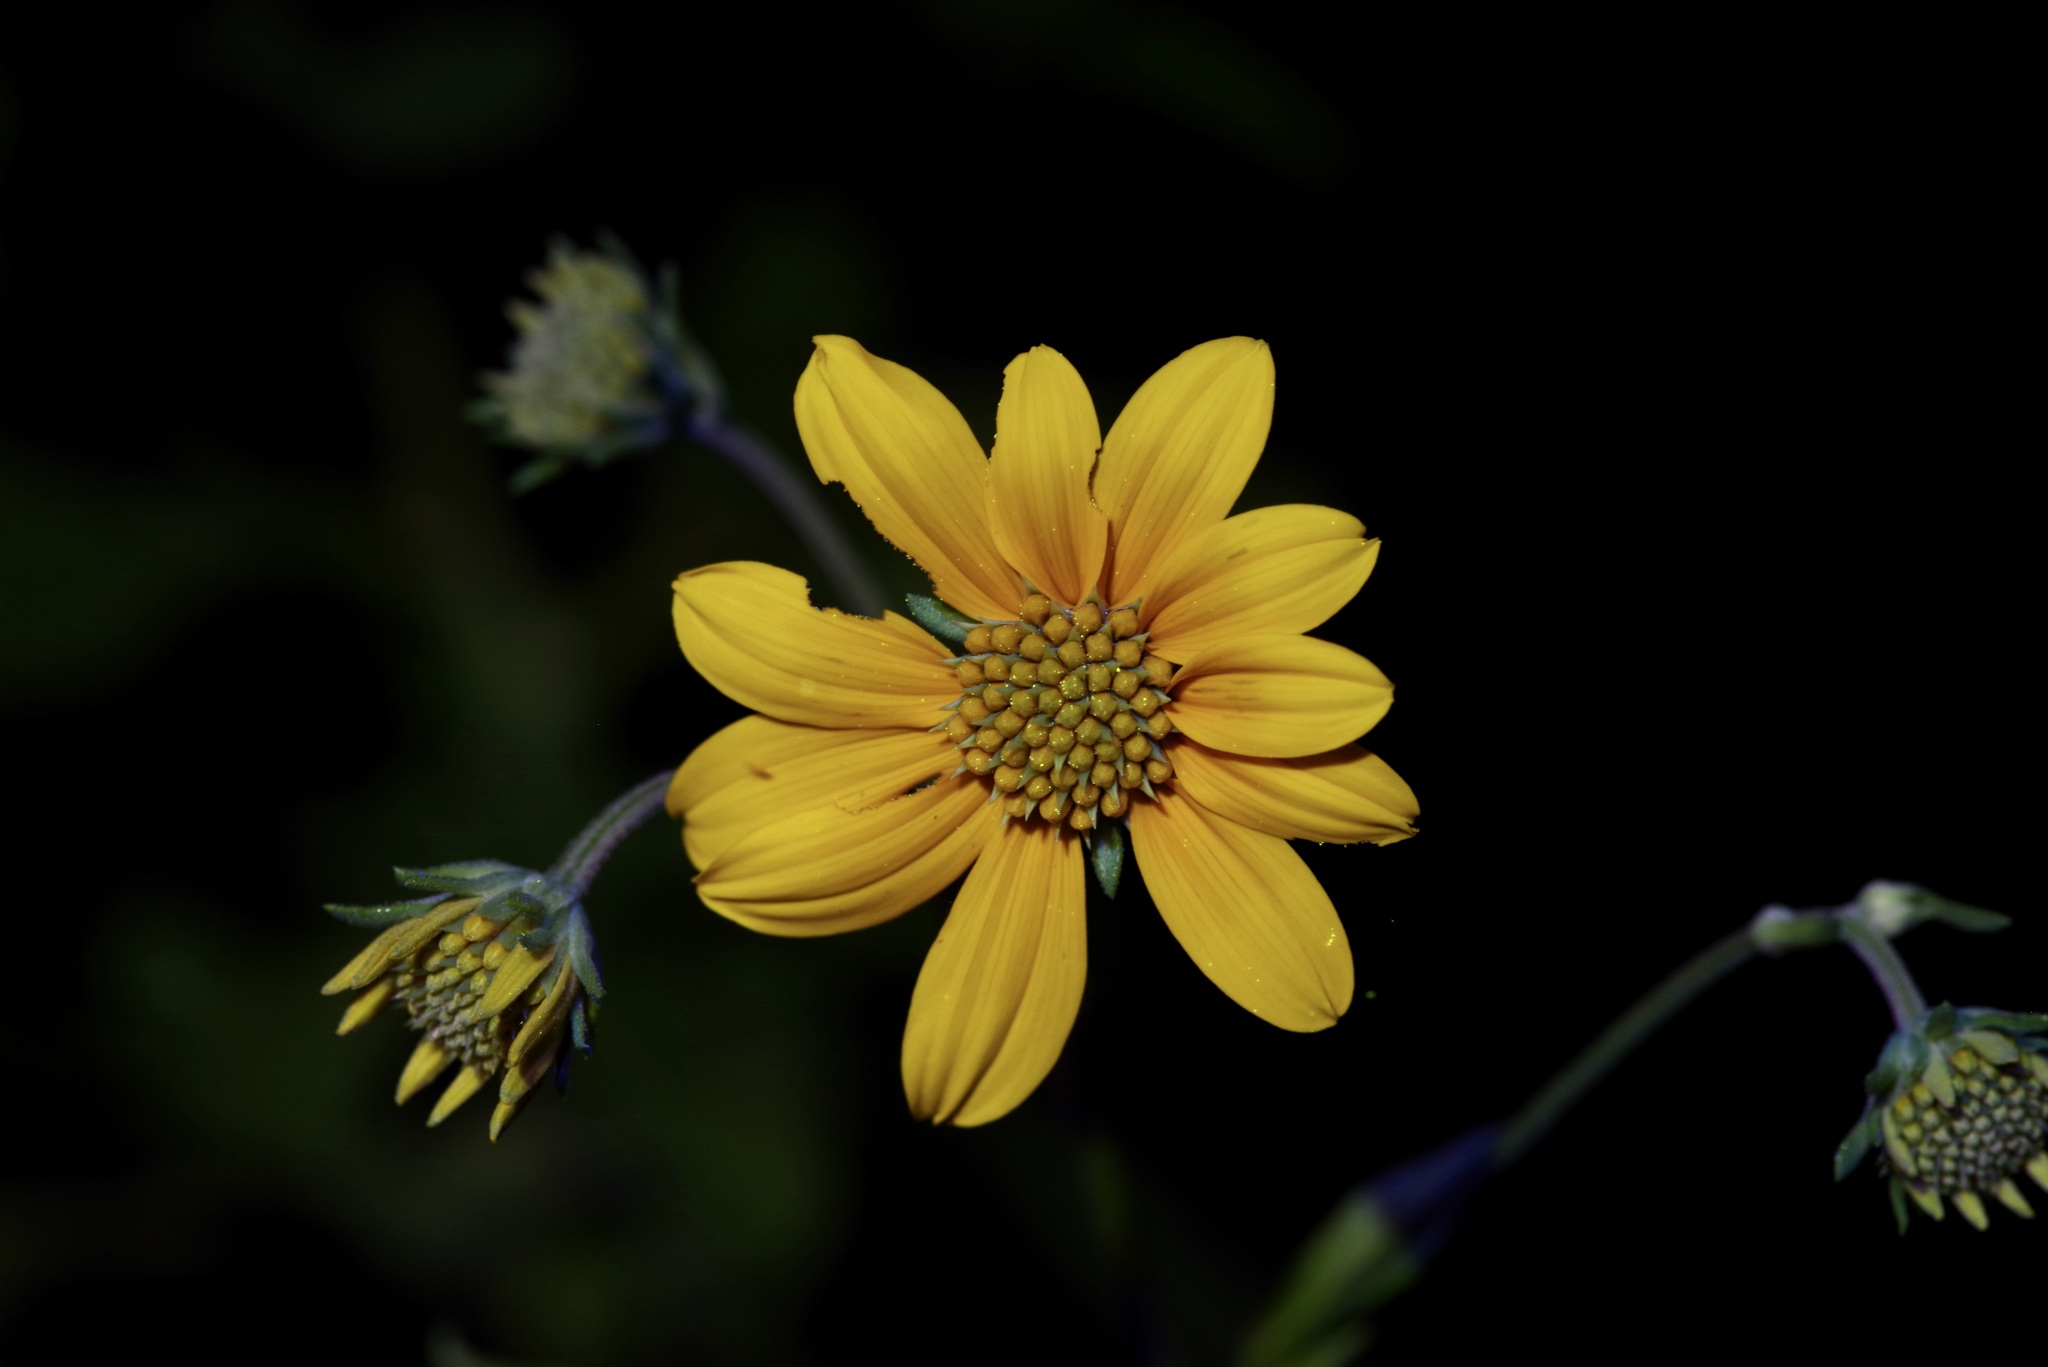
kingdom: Plantae
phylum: Tracheophyta
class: Magnoliopsida
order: Asterales
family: Asteraceae
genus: Viguiera
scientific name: Viguiera dentata
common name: Toothleaf
